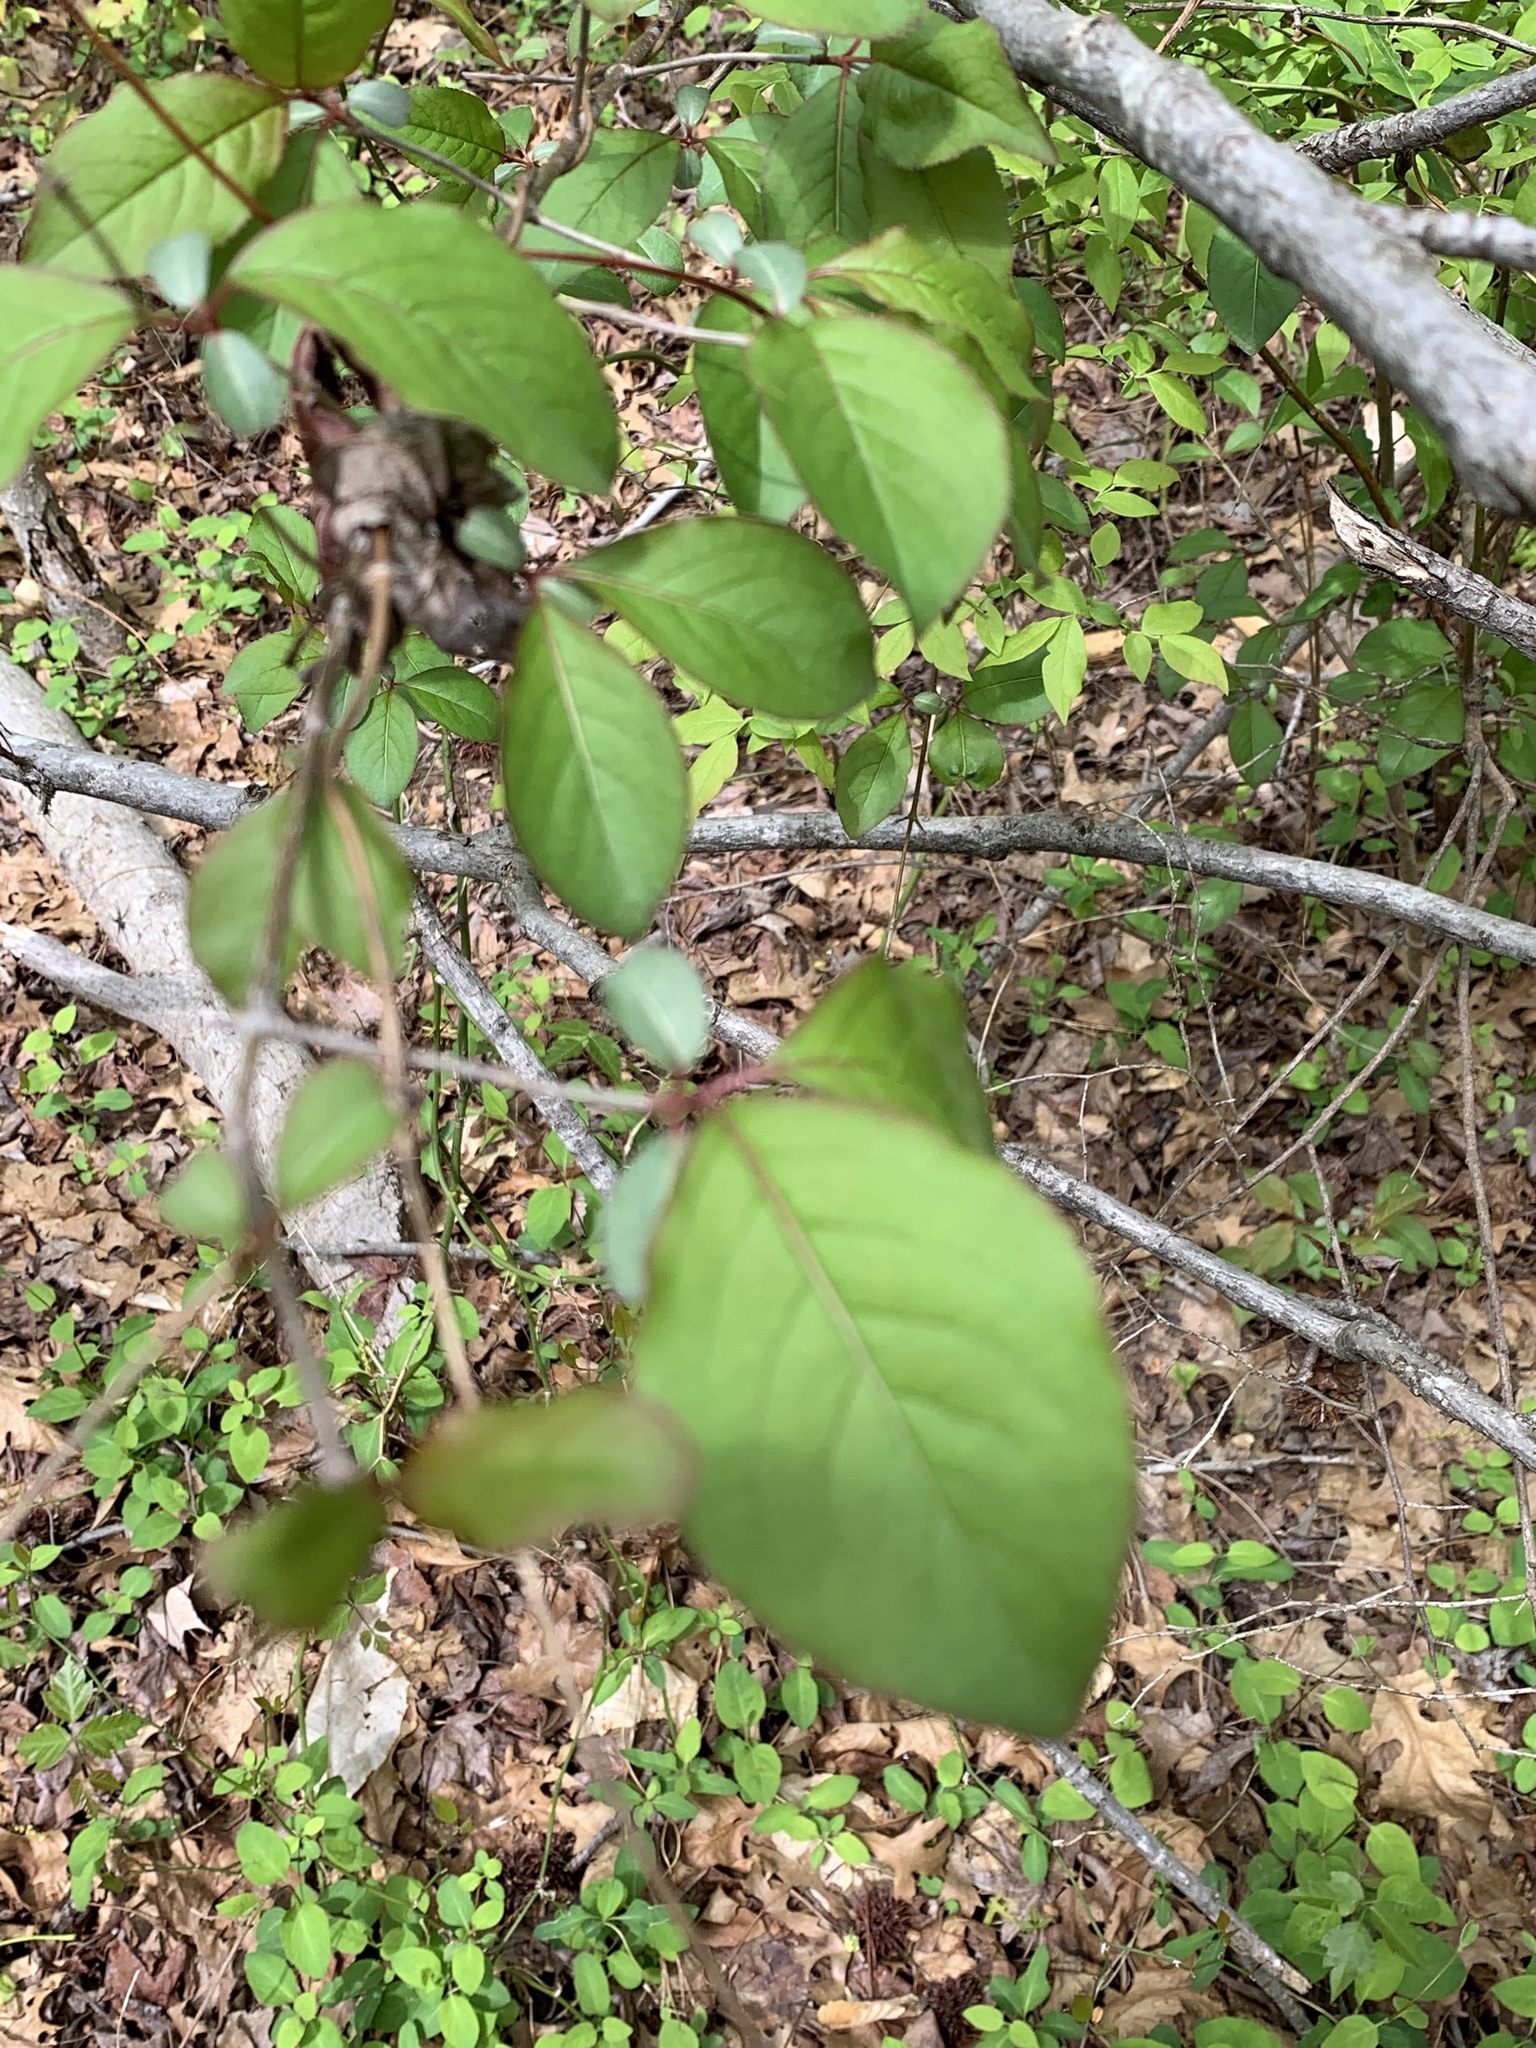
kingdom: Plantae
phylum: Tracheophyta
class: Magnoliopsida
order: Dipsacales
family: Viburnaceae
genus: Viburnum
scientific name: Viburnum prunifolium
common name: Black haw
